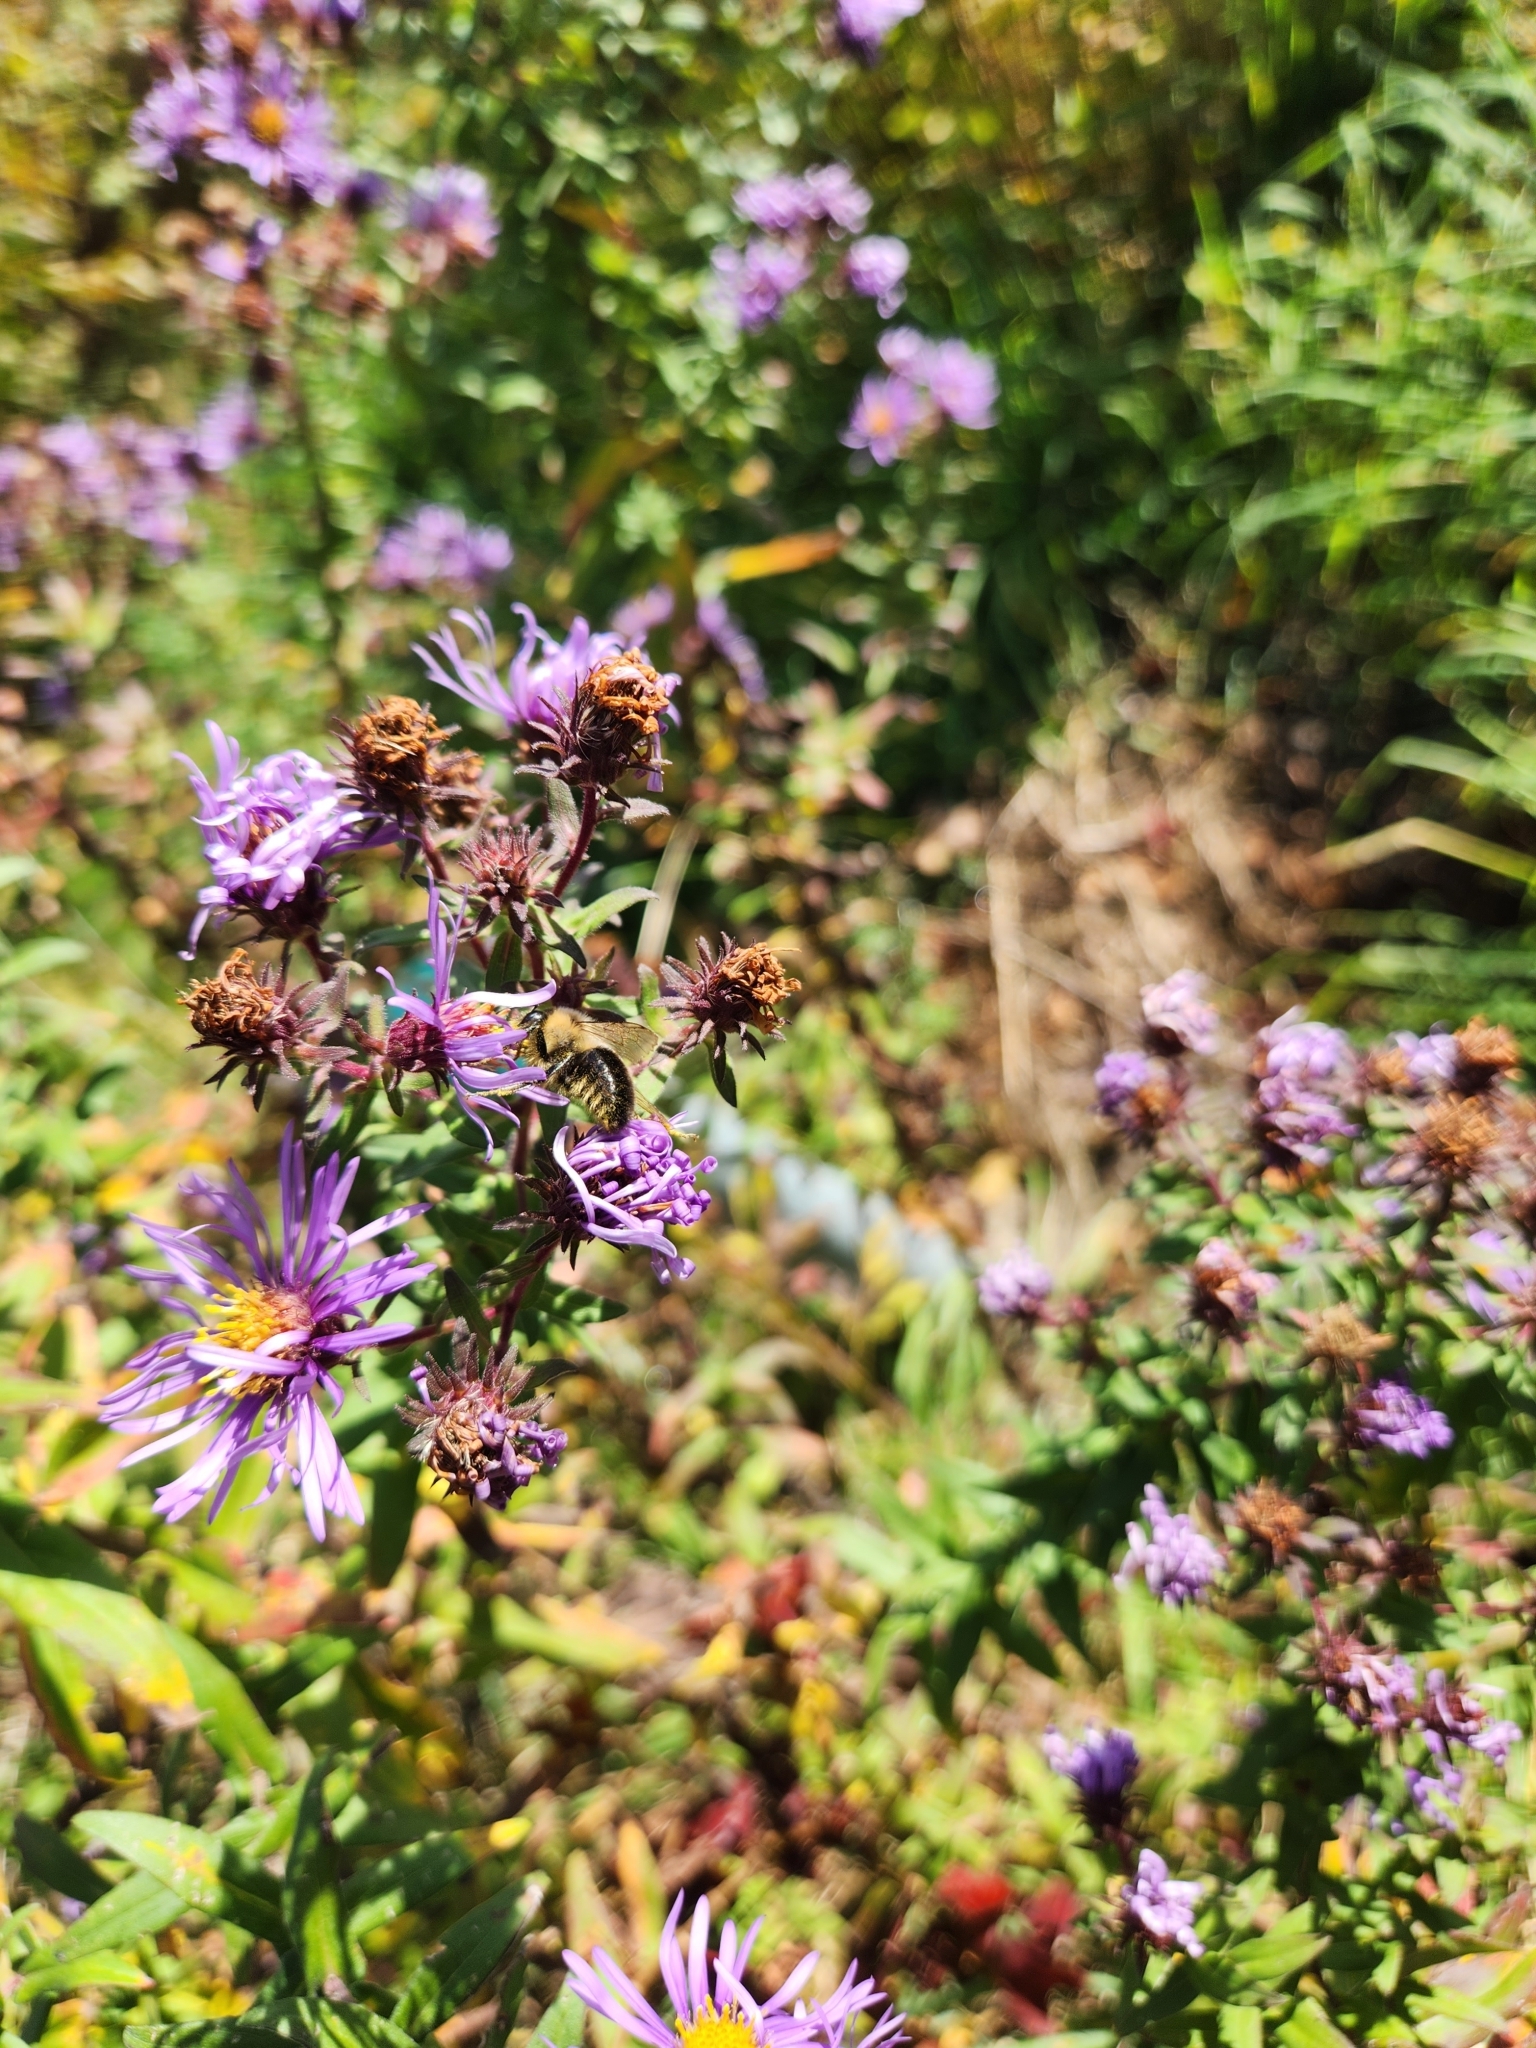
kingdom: Animalia
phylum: Arthropoda
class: Insecta
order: Hymenoptera
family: Apidae
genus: Bombus
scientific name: Bombus impatiens
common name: Common eastern bumble bee
